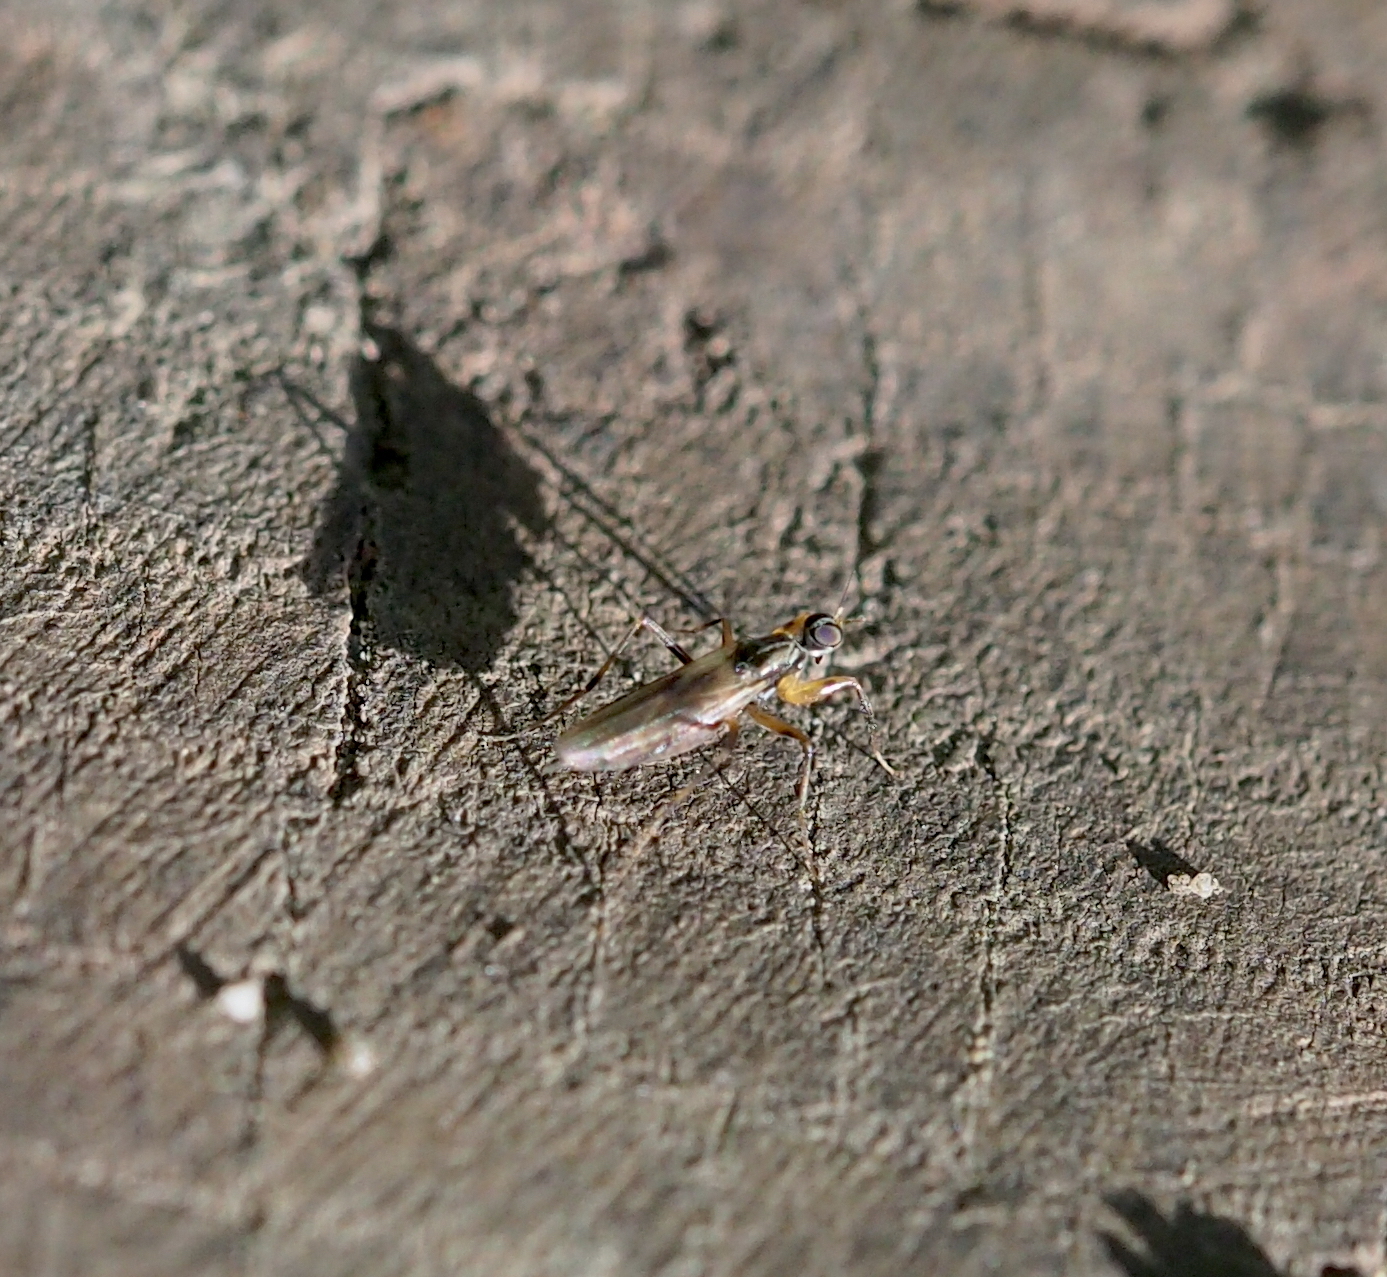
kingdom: Animalia
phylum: Arthropoda
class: Insecta
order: Diptera
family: Hybotidae
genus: Tachypeza
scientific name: Tachypeza nubila
